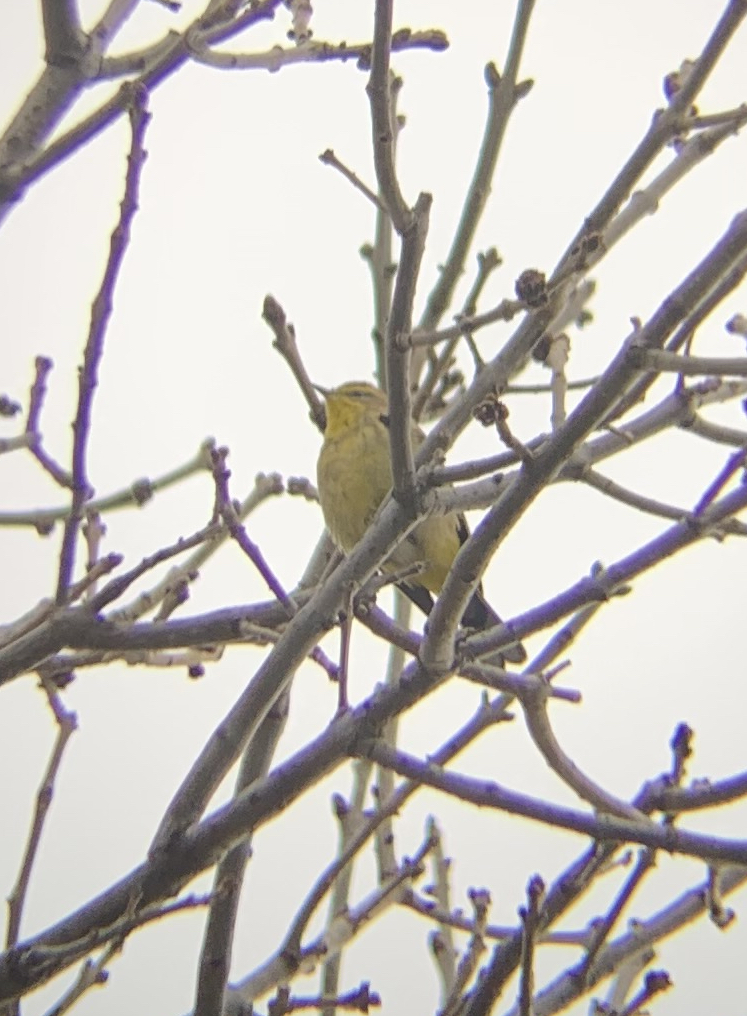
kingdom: Animalia
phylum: Chordata
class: Aves
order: Passeriformes
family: Parulidae
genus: Setophaga
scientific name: Setophaga palmarum
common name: Palm warbler
